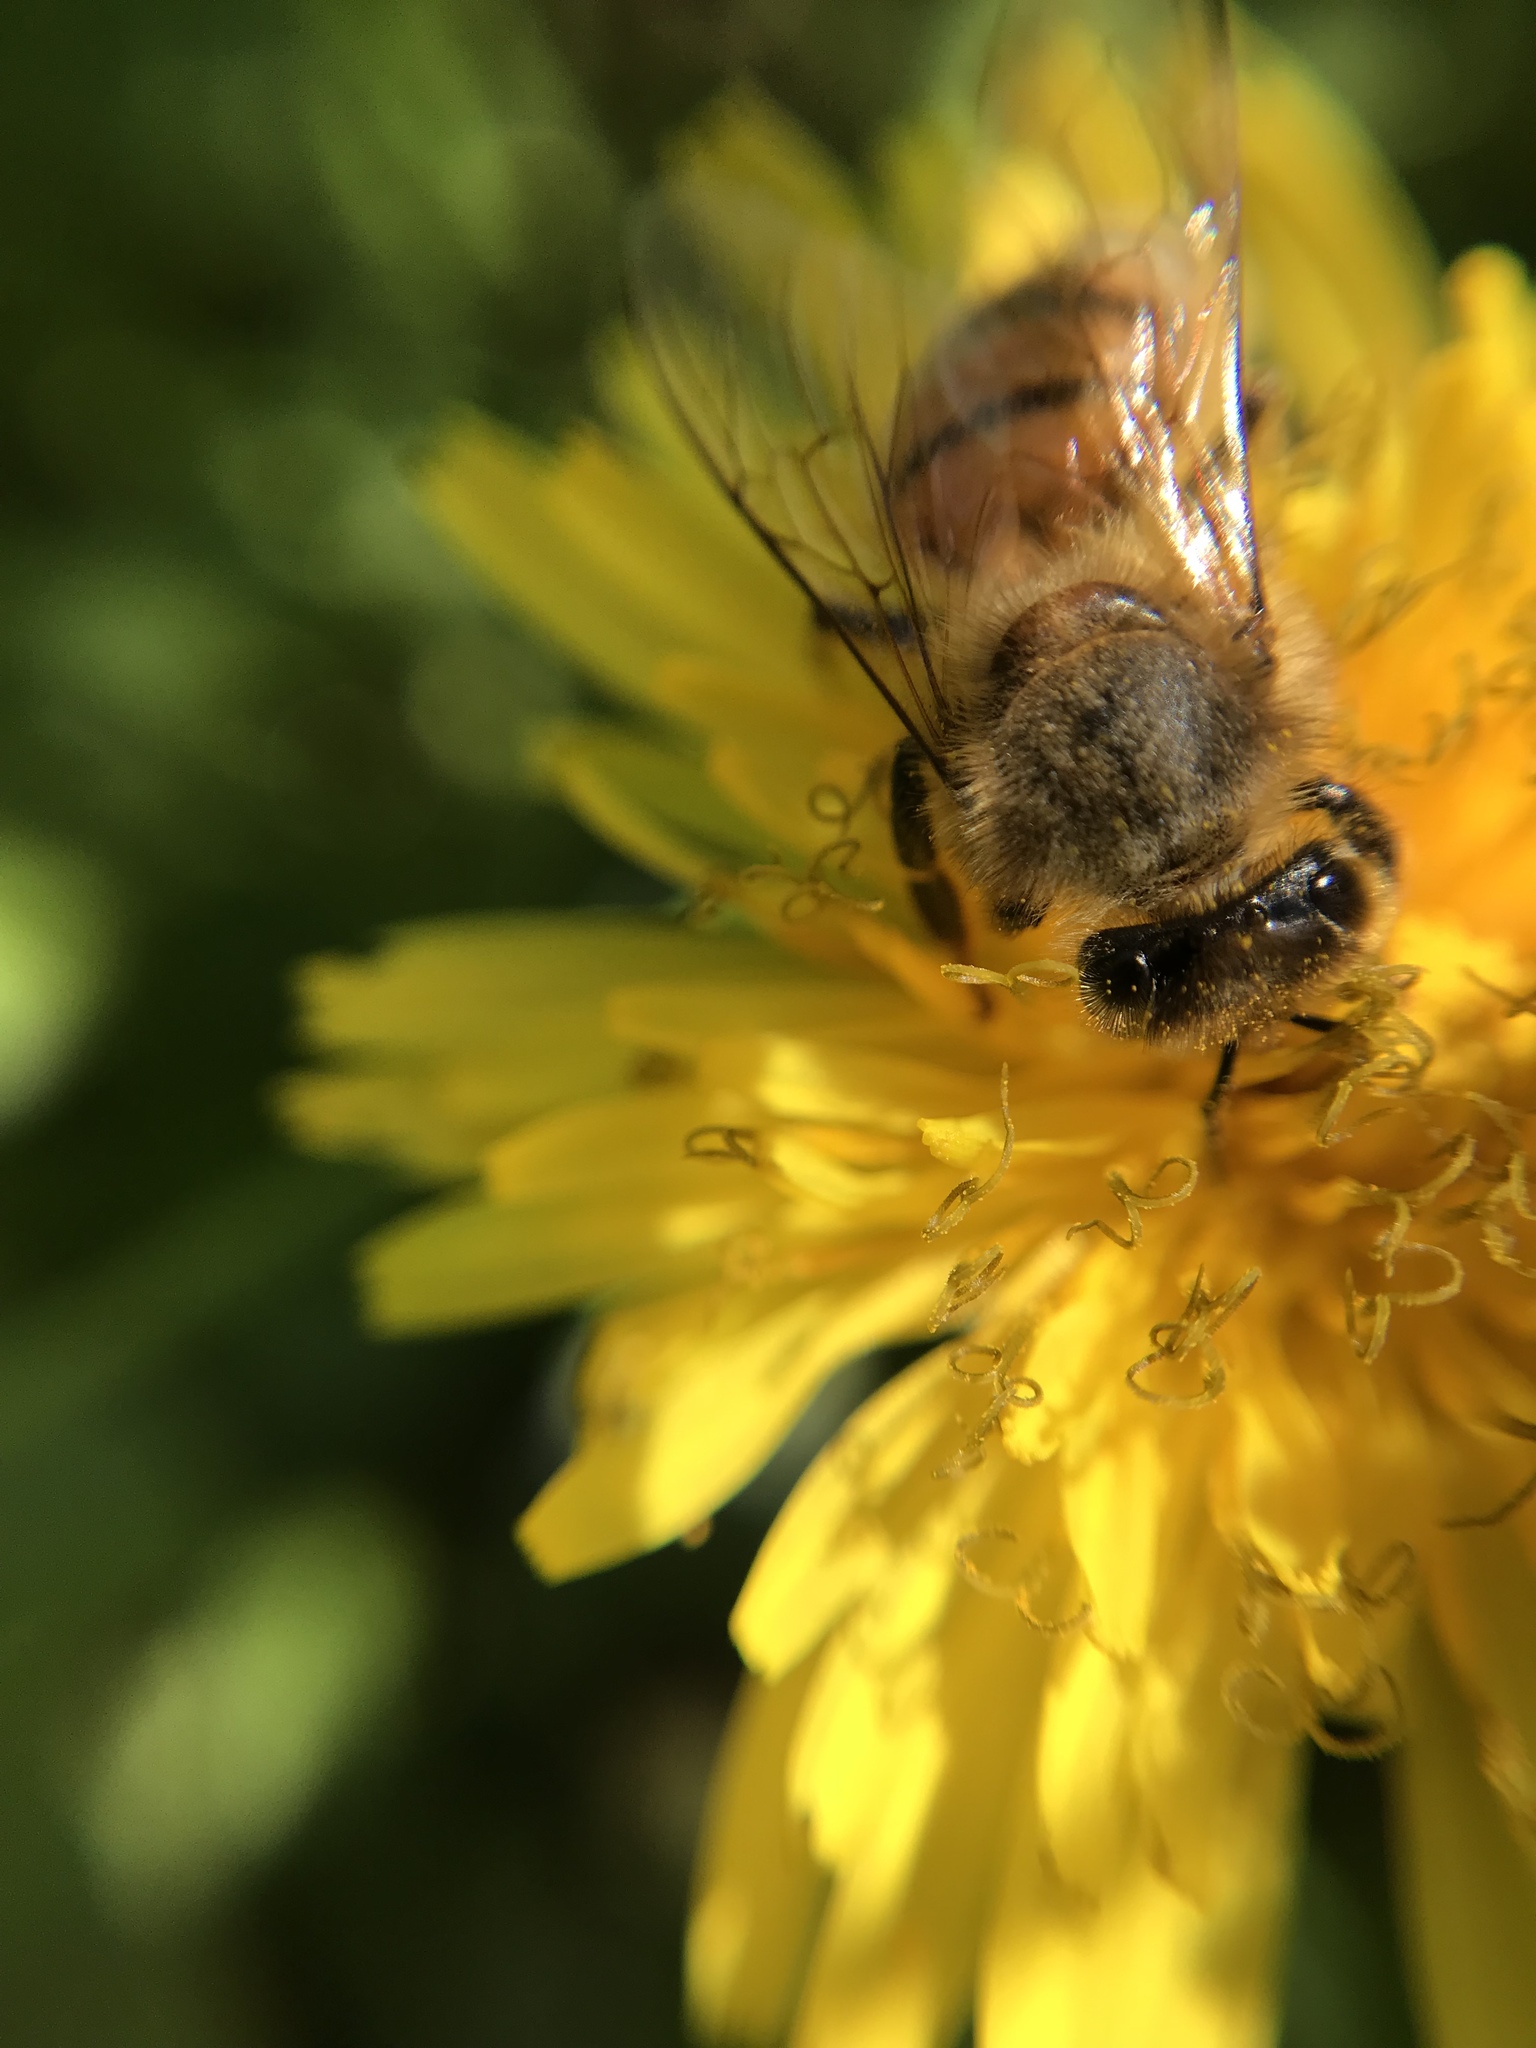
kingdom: Animalia
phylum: Arthropoda
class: Insecta
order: Hymenoptera
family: Apidae
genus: Apis
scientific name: Apis mellifera
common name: Honey bee
